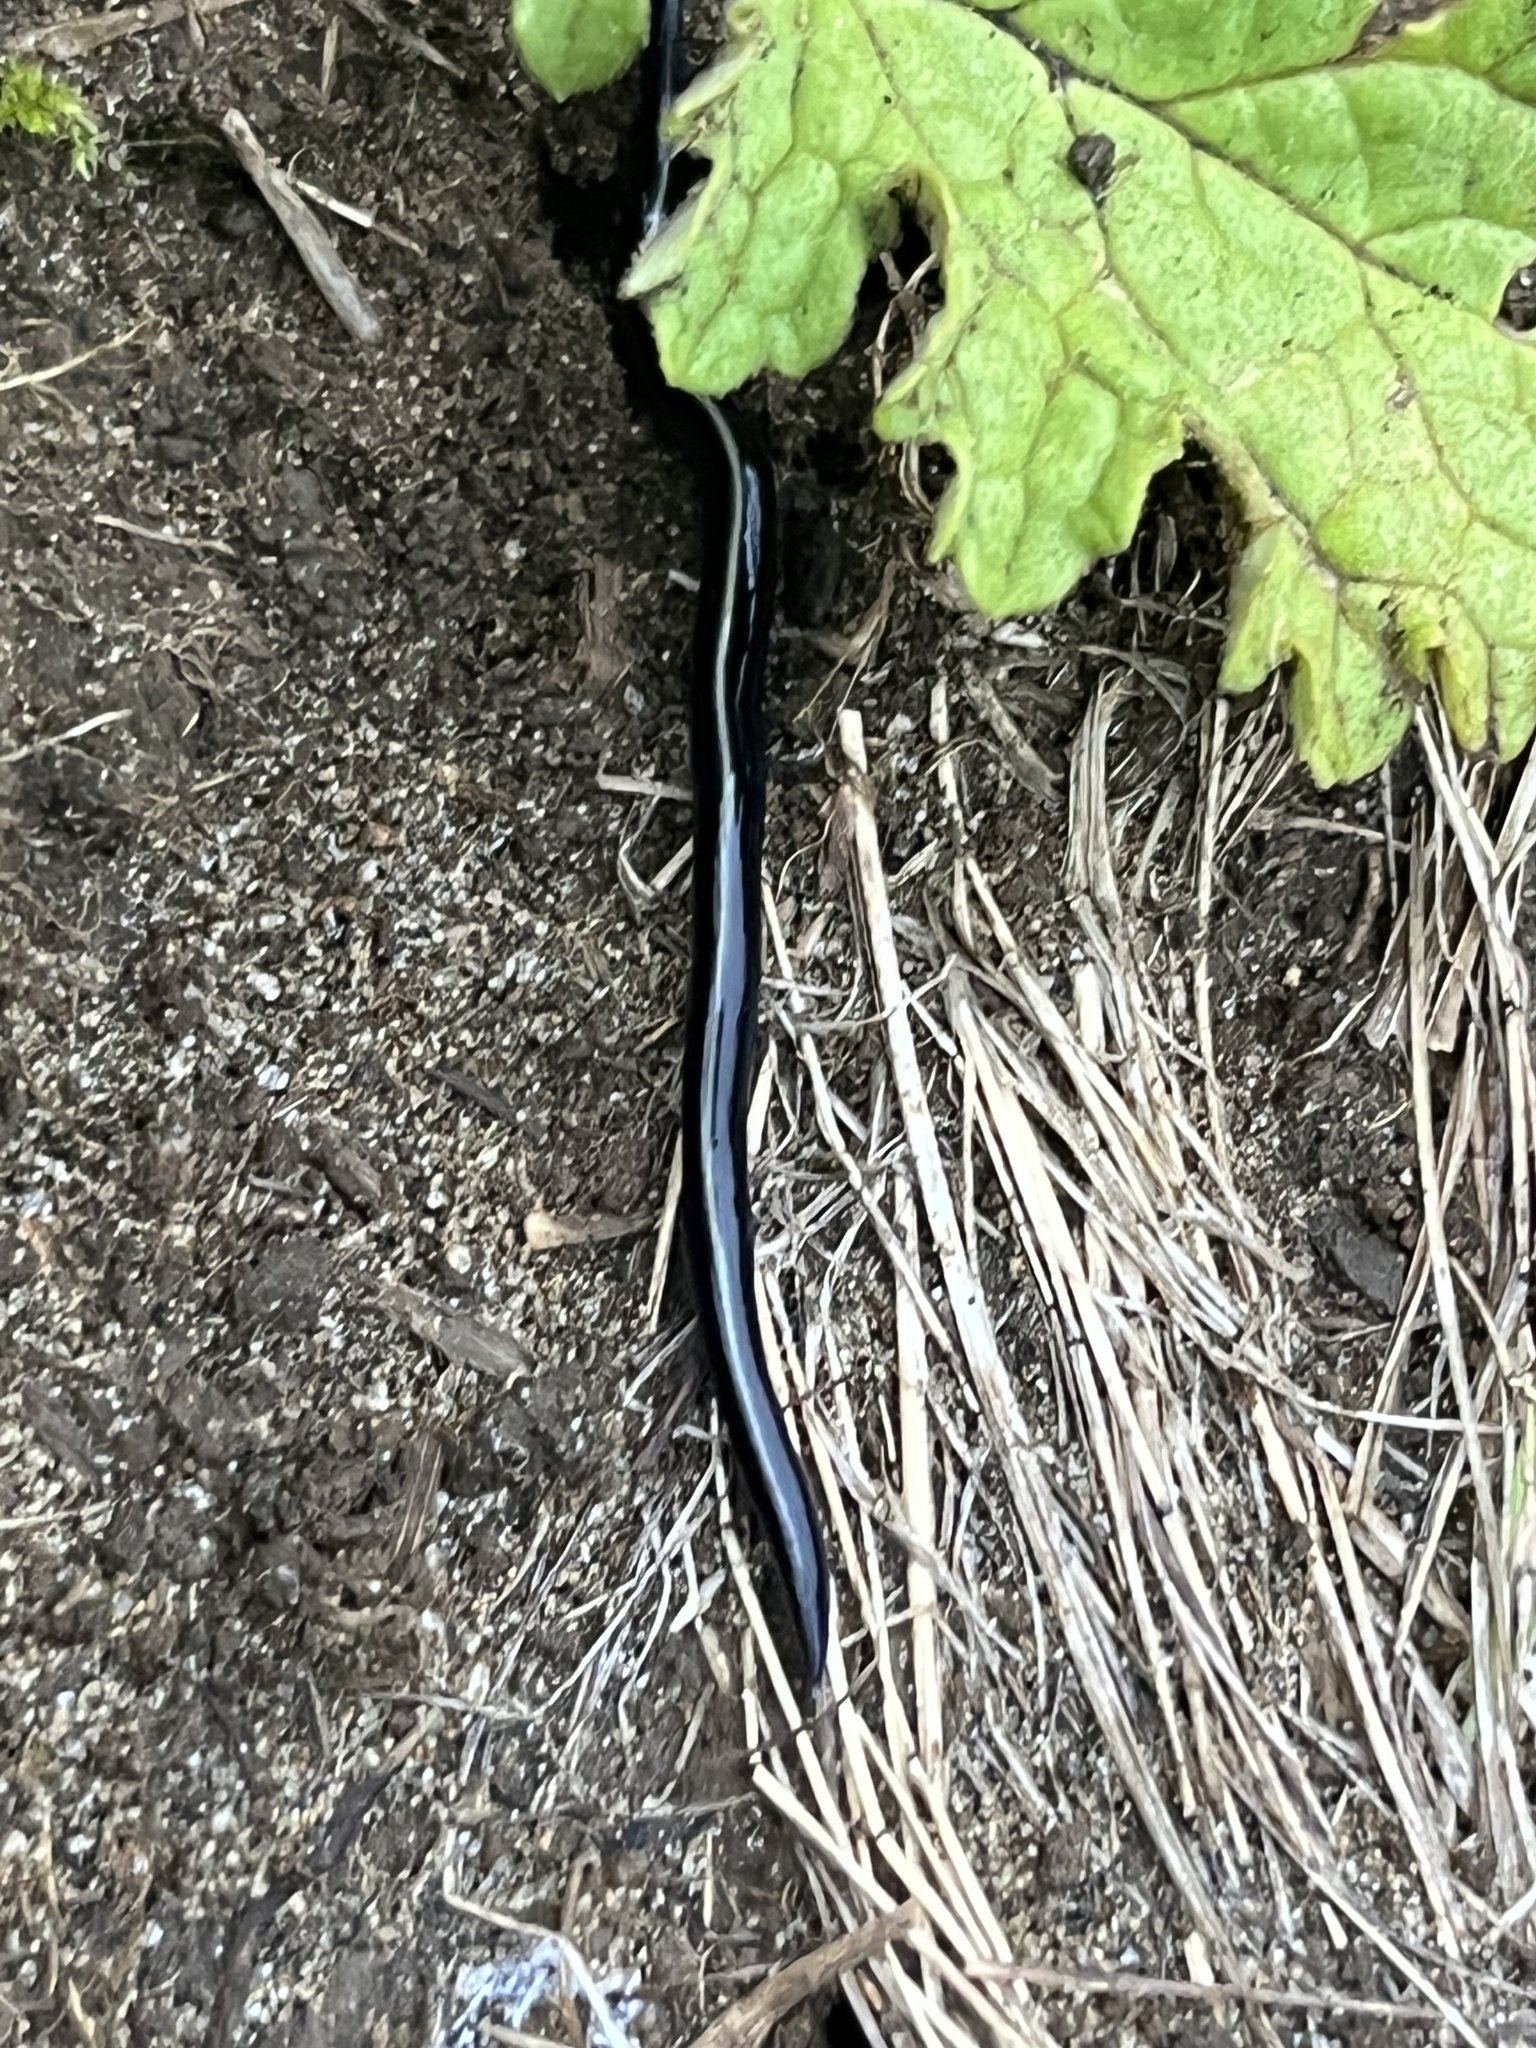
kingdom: Animalia
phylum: Platyhelminthes
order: Tricladida
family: Geoplanidae
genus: Caenoplana
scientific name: Caenoplana coerulea
